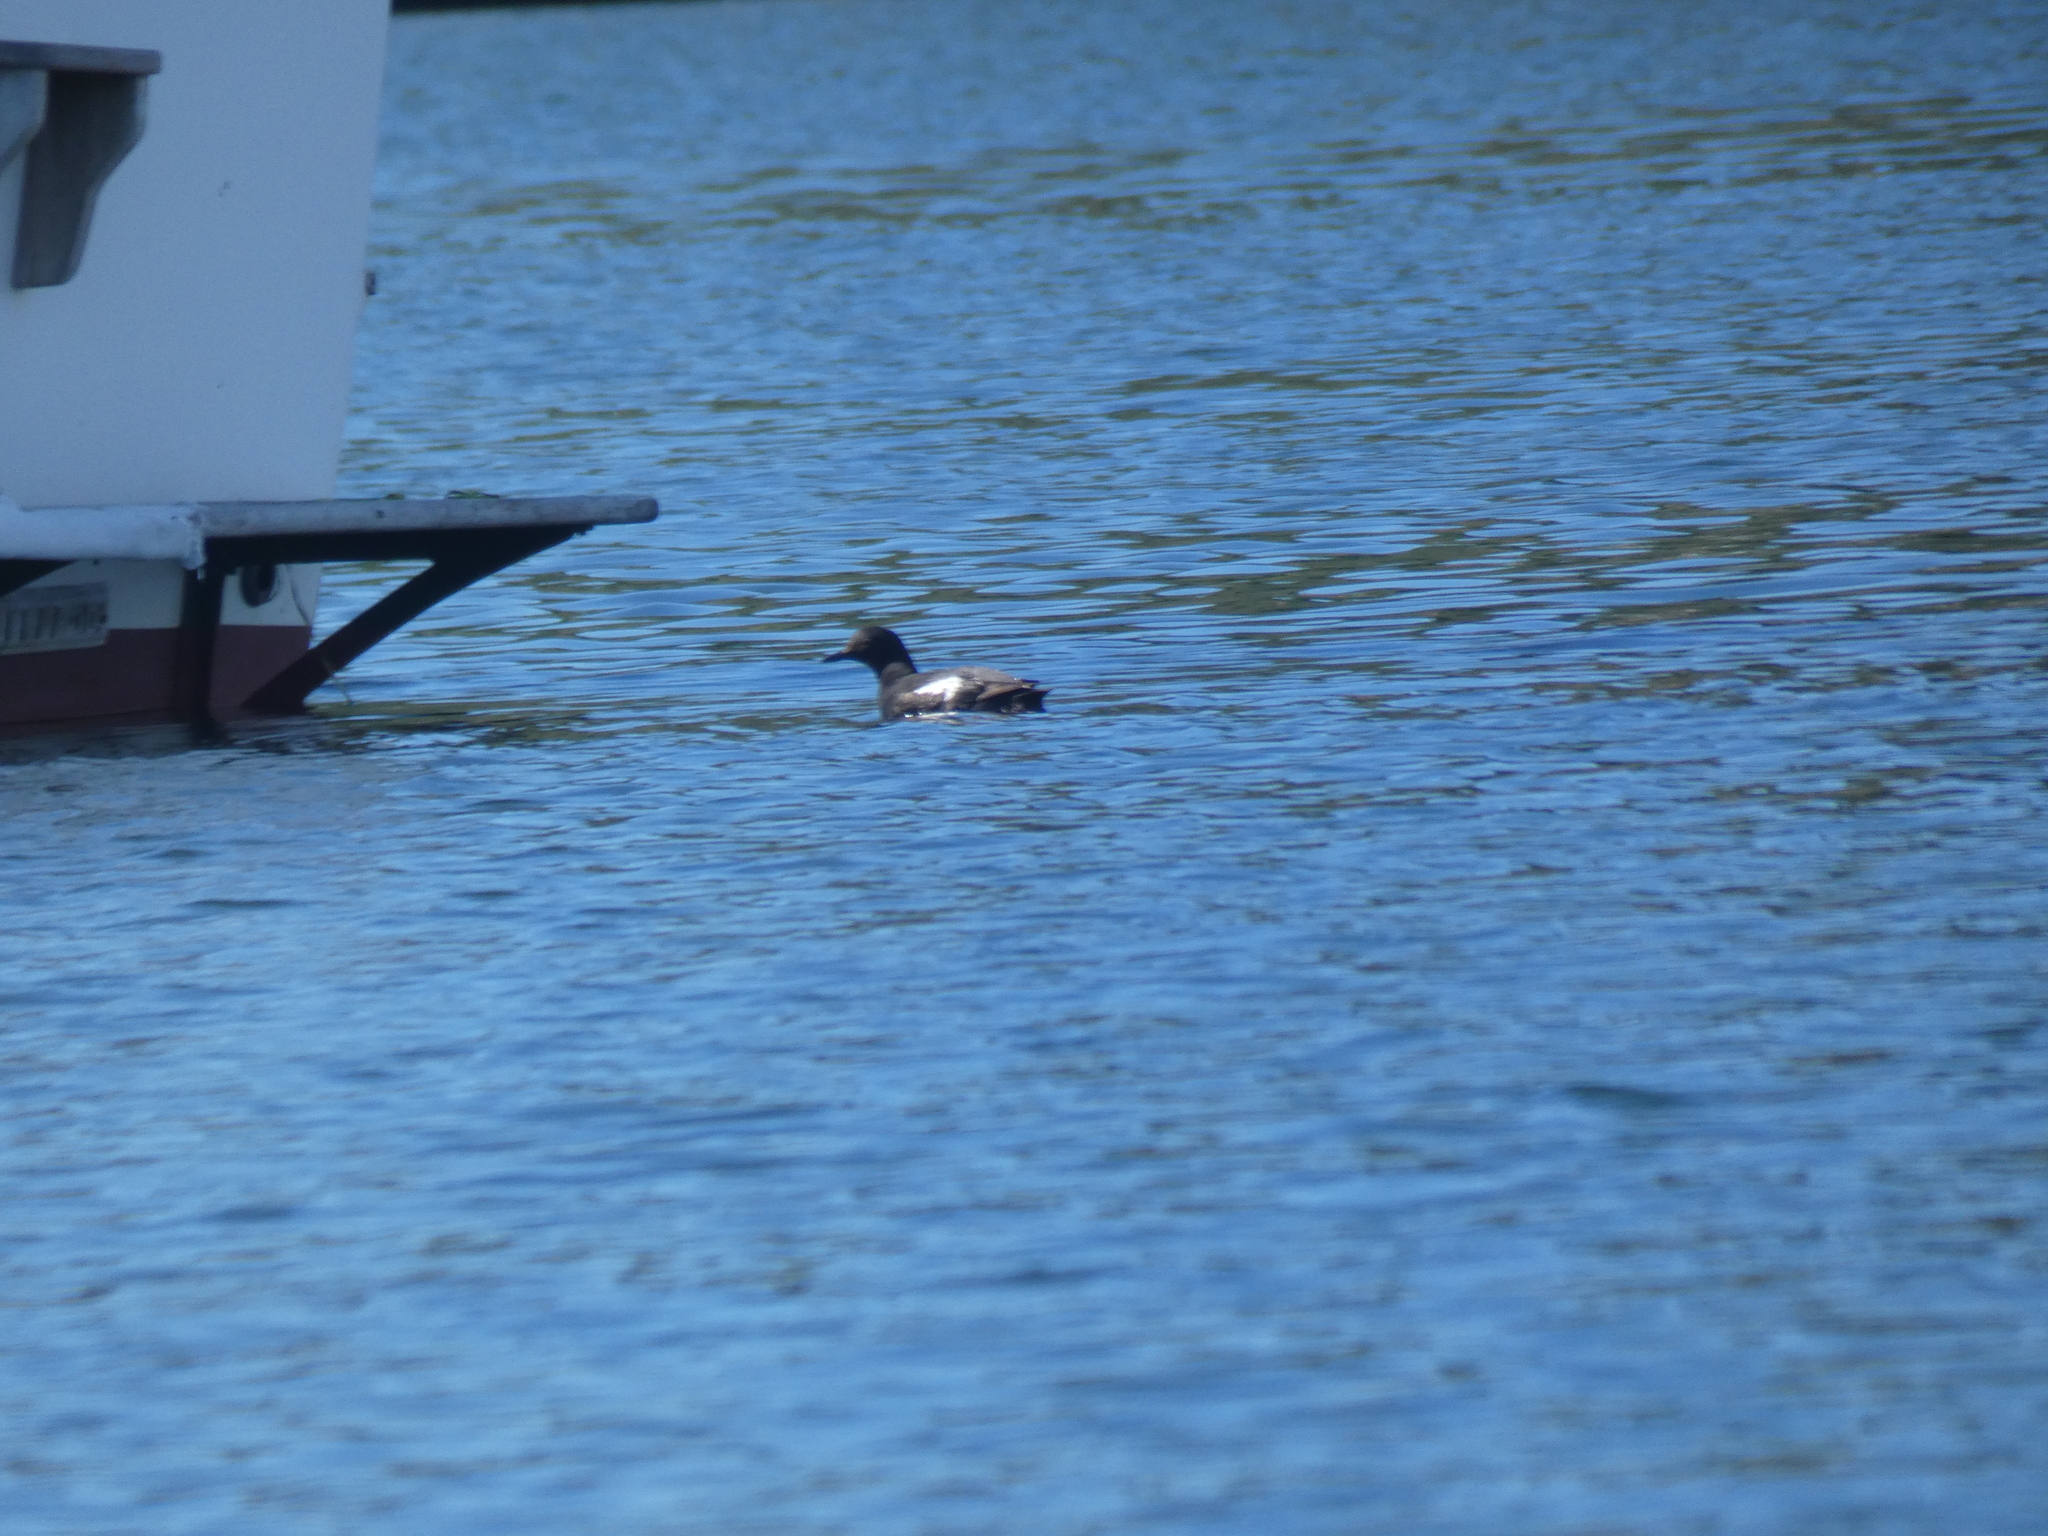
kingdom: Animalia
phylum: Chordata
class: Aves
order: Charadriiformes
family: Alcidae
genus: Cepphus
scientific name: Cepphus columba
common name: Pigeon guillemot
